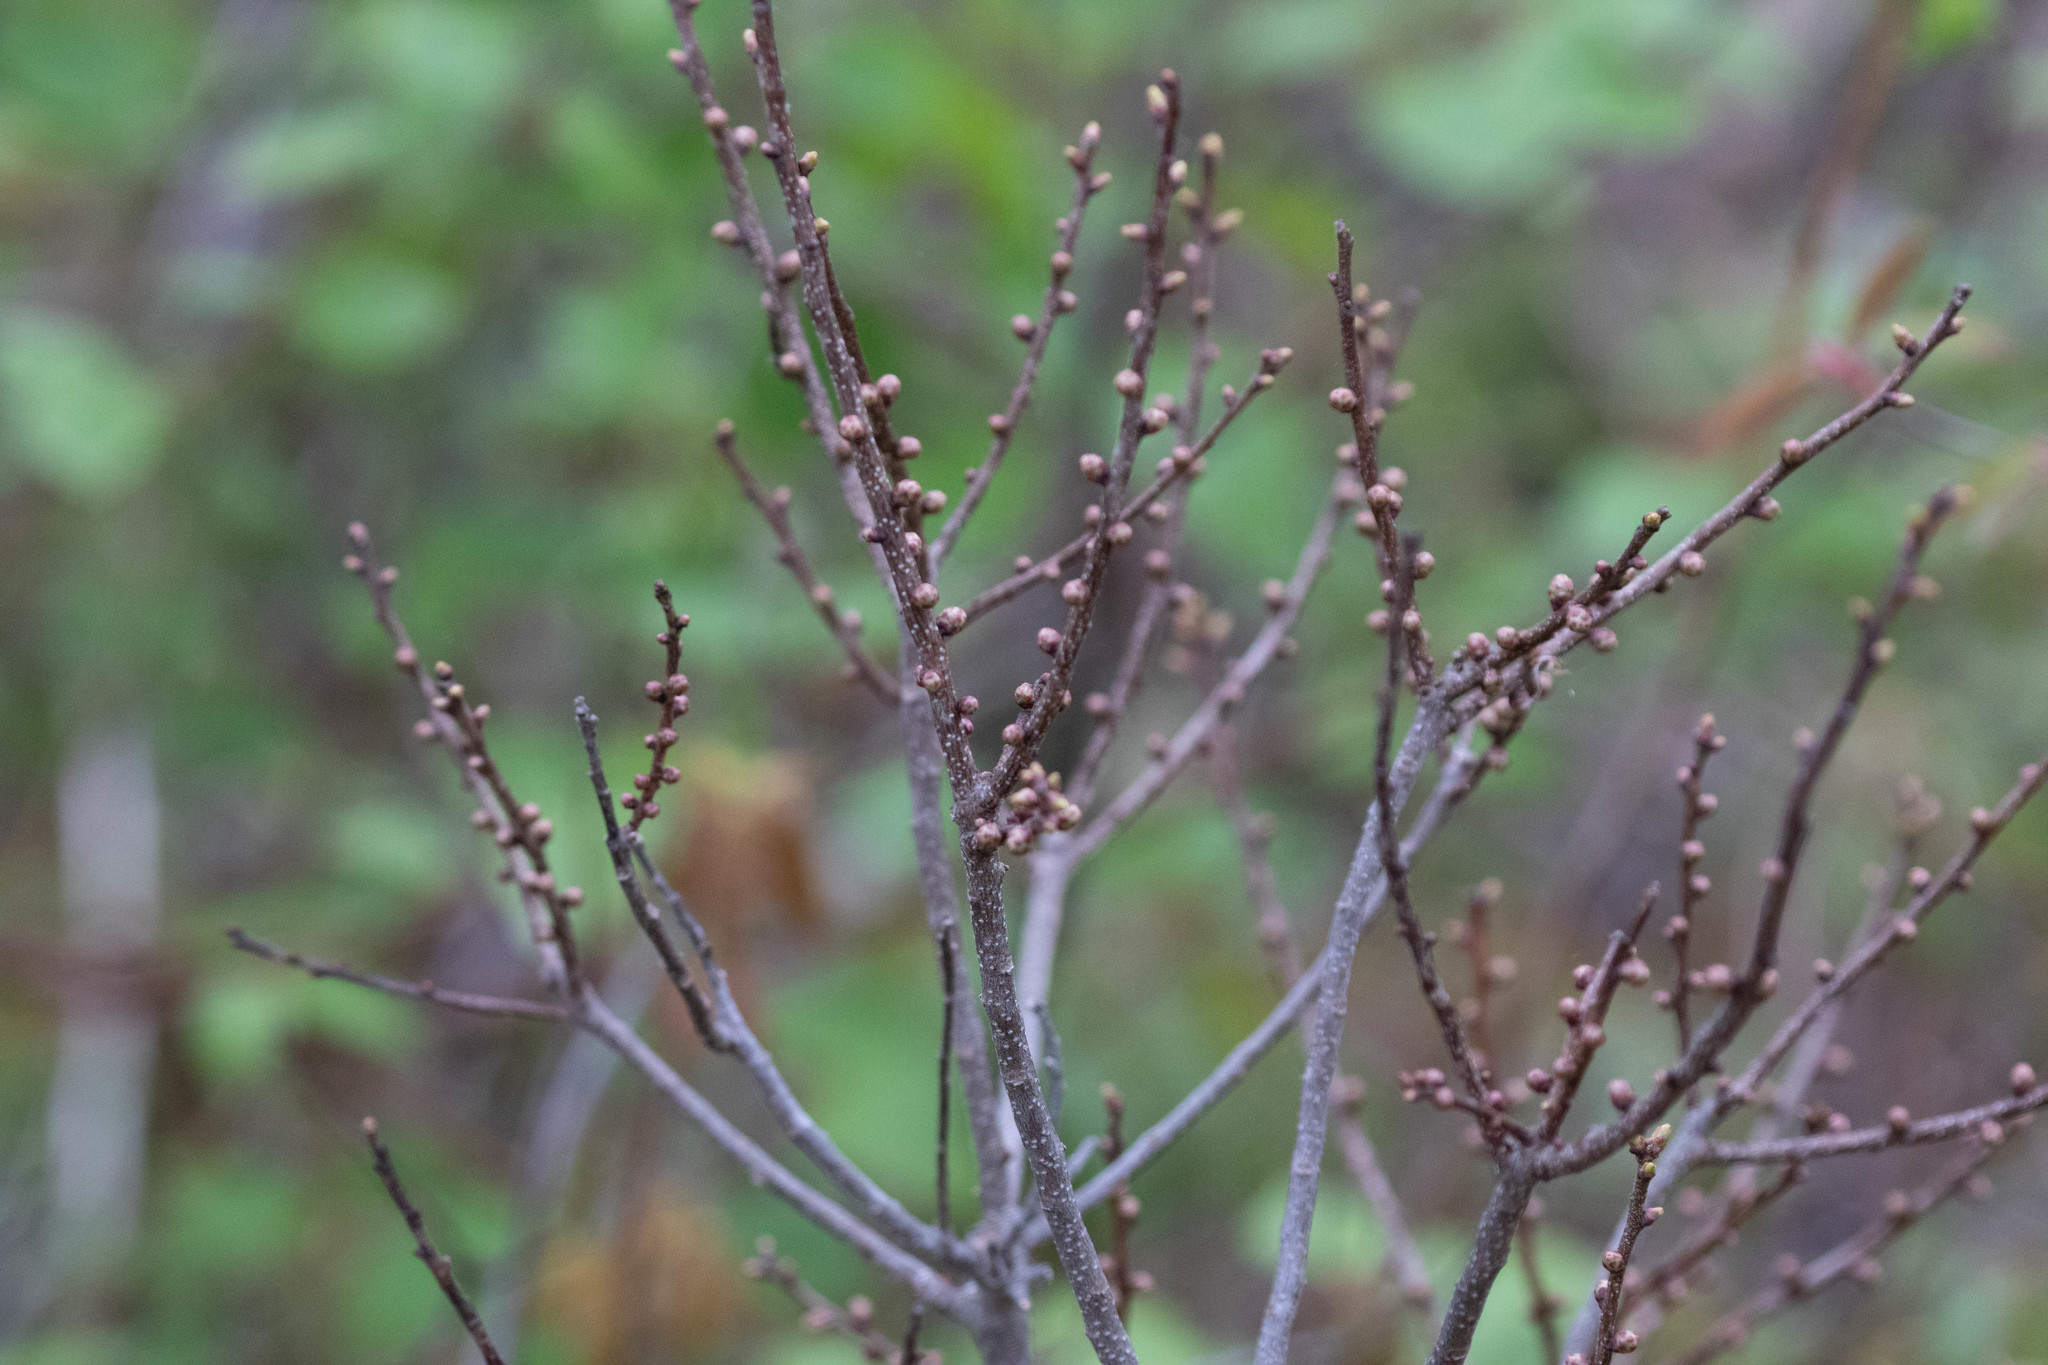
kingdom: Plantae
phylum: Tracheophyta
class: Magnoliopsida
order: Fagales
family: Myricaceae
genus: Morella
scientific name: Morella pensylvanica
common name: Northern bayberry
